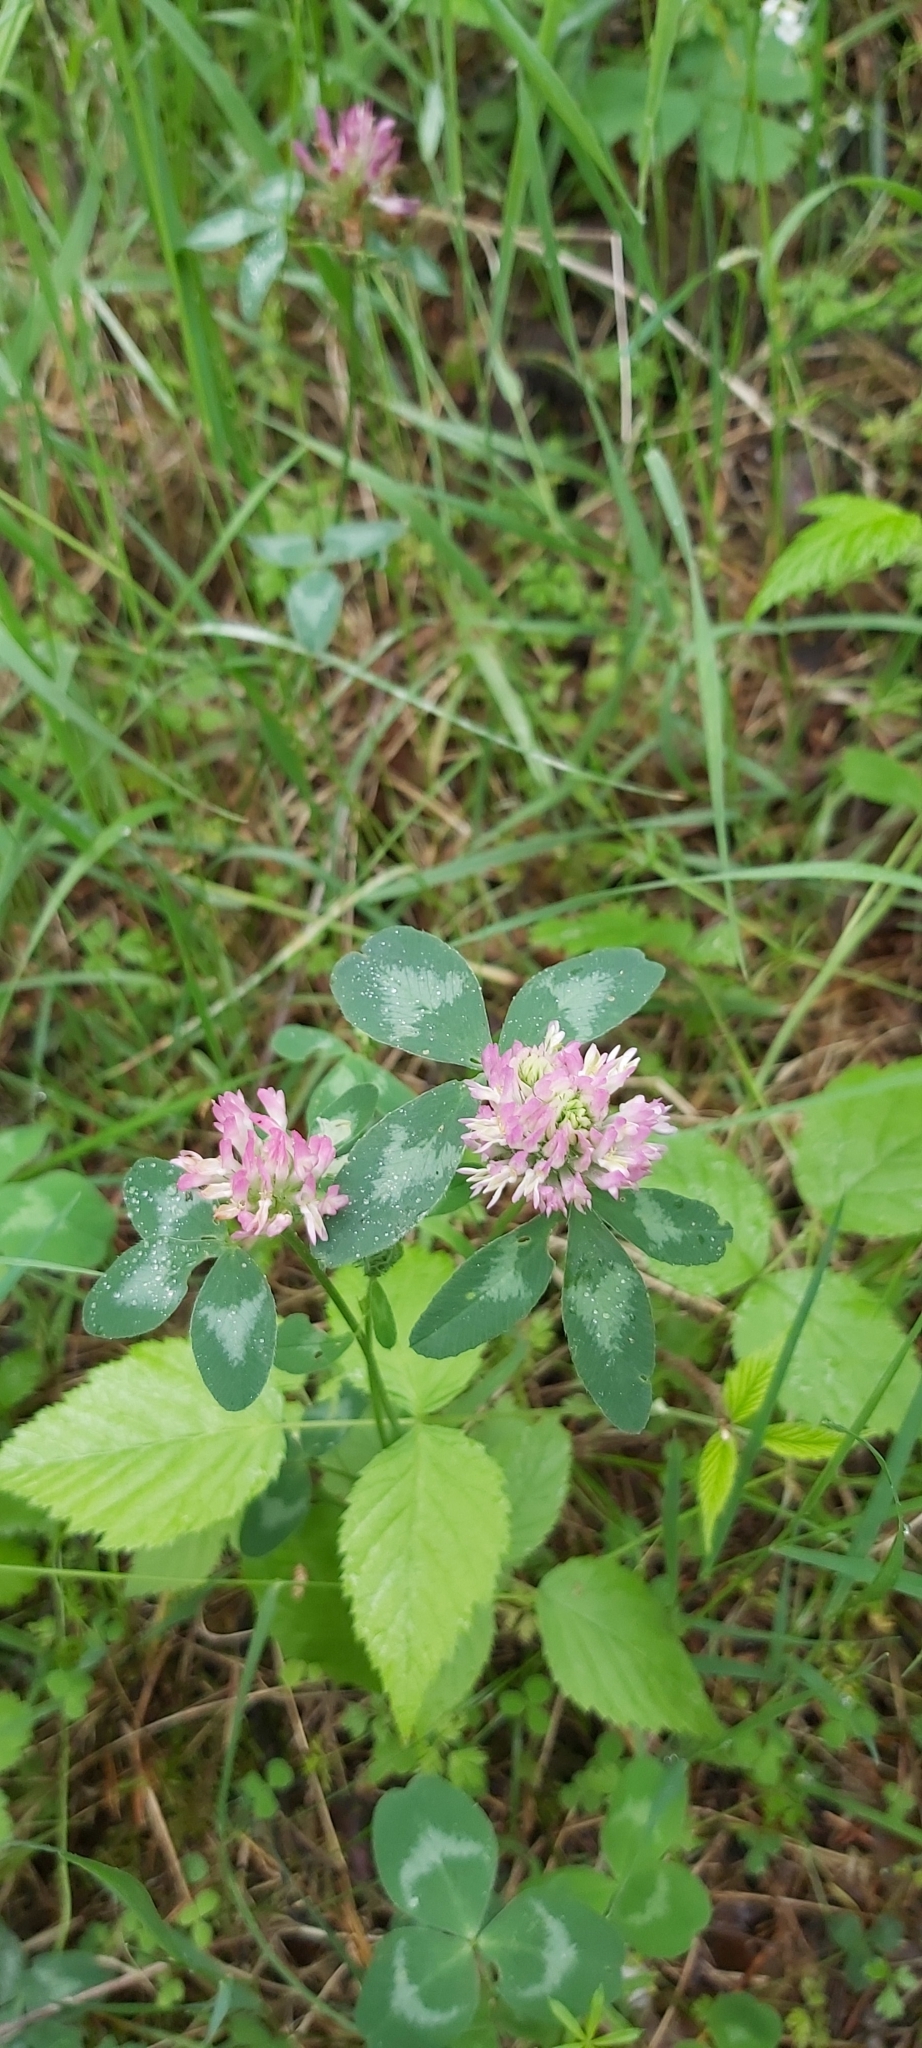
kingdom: Plantae
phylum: Tracheophyta
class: Magnoliopsida
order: Fabales
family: Fabaceae
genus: Trifolium
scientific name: Trifolium pratense
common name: Red clover
